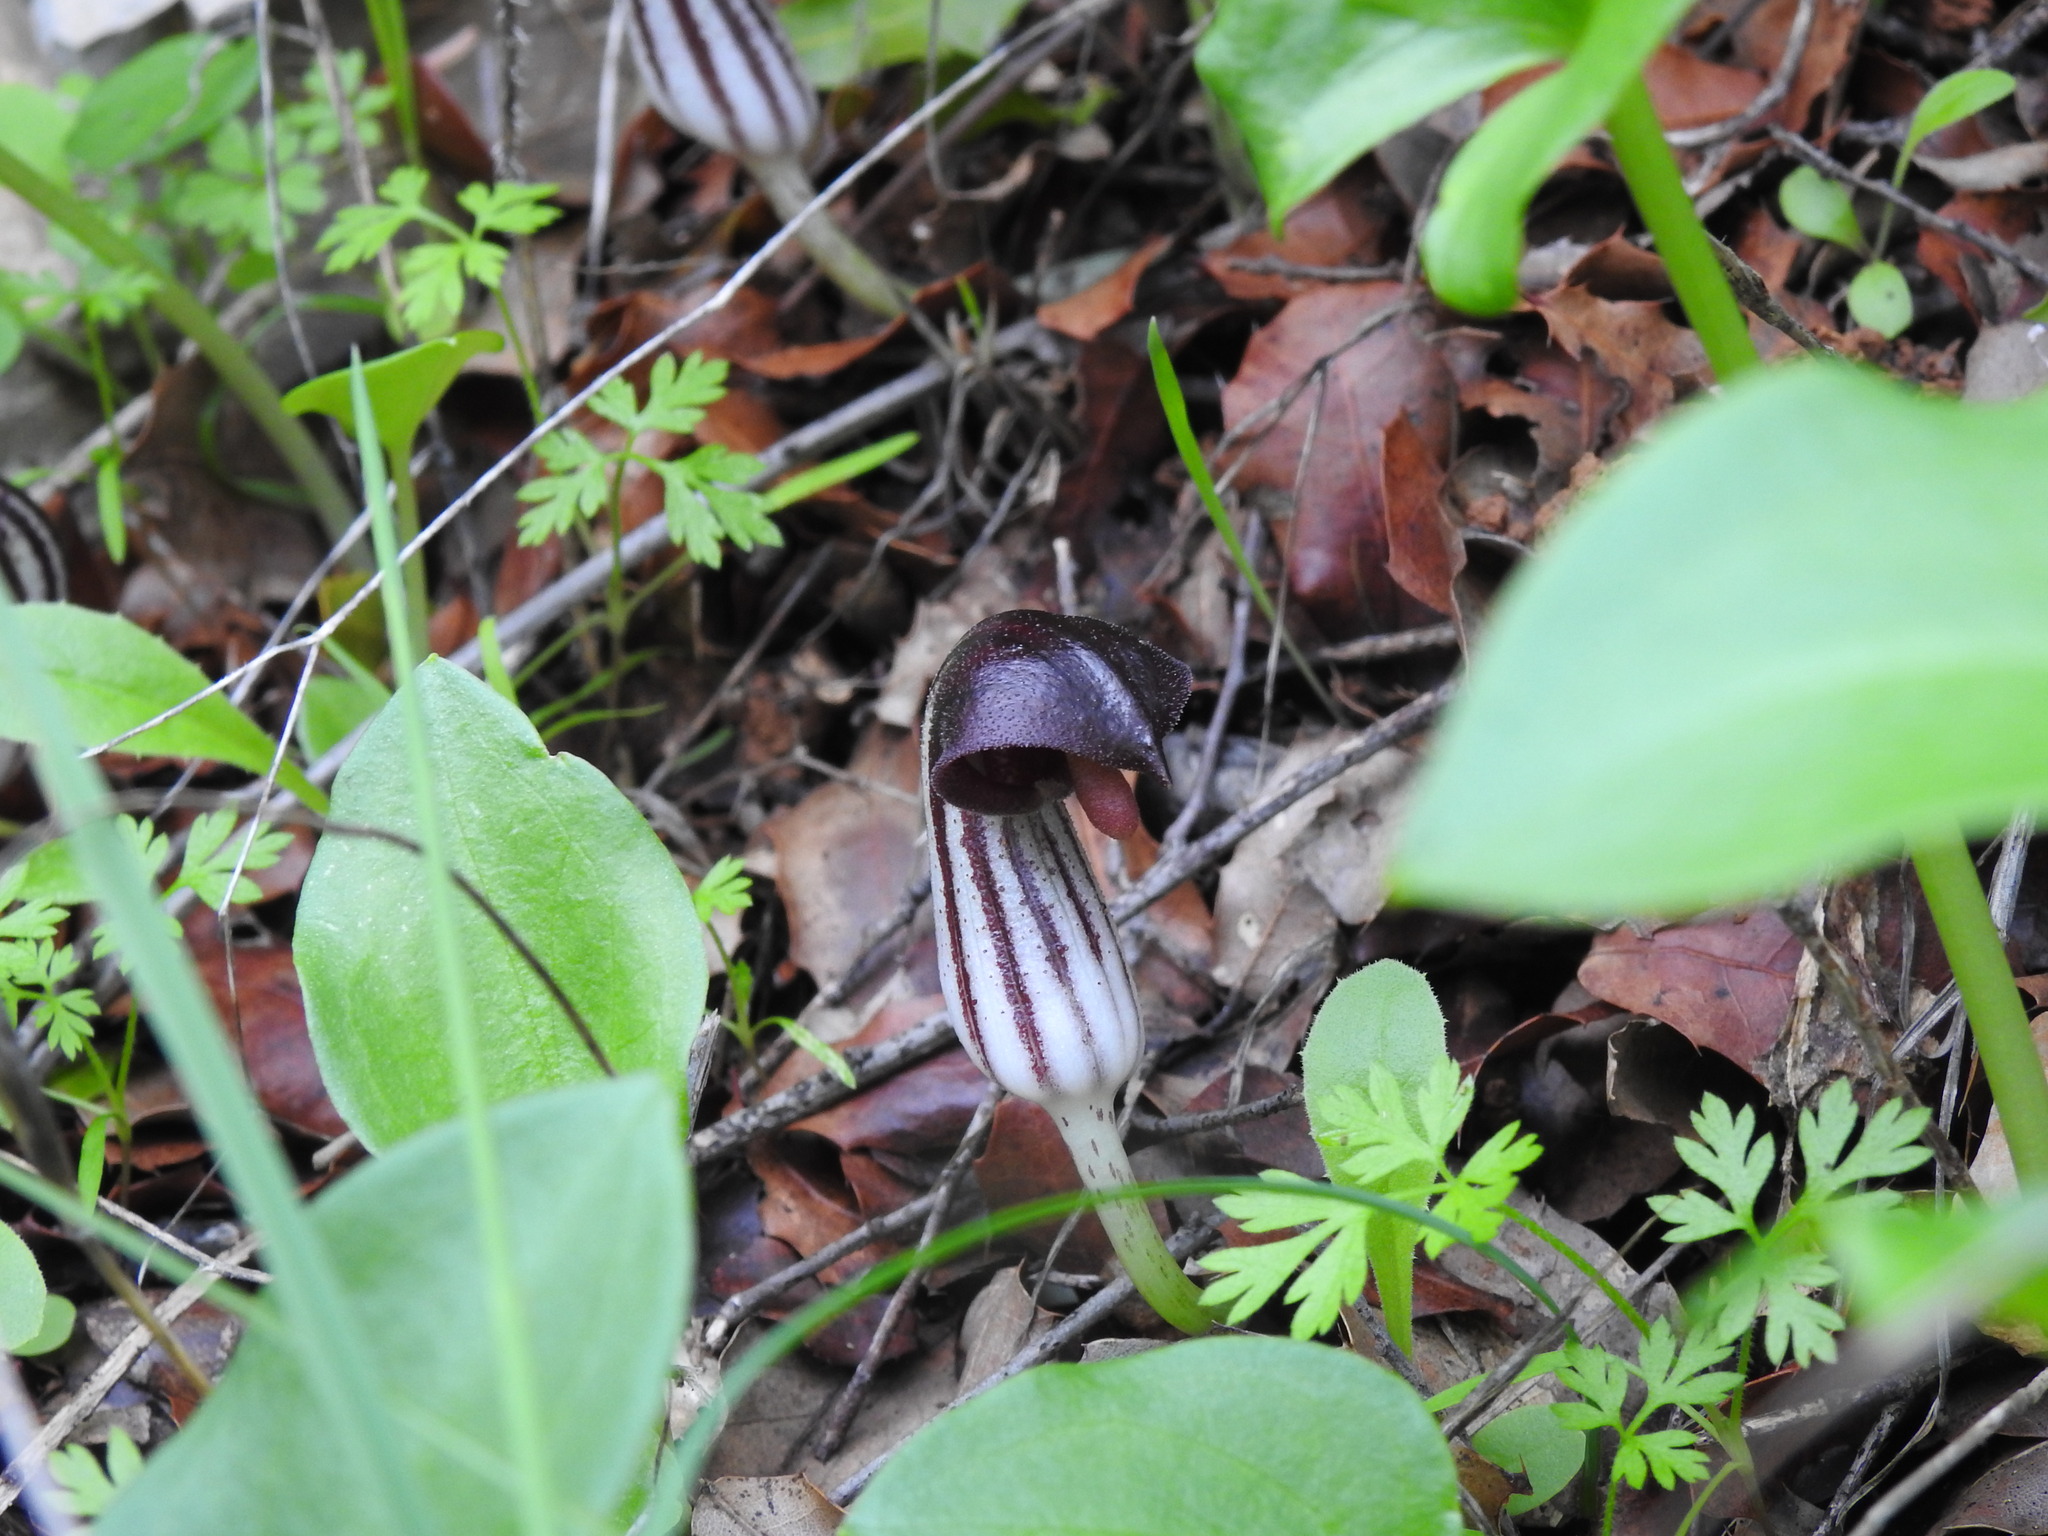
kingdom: Plantae
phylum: Tracheophyta
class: Liliopsida
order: Alismatales
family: Araceae
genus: Arisarum
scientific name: Arisarum simorrhinum
